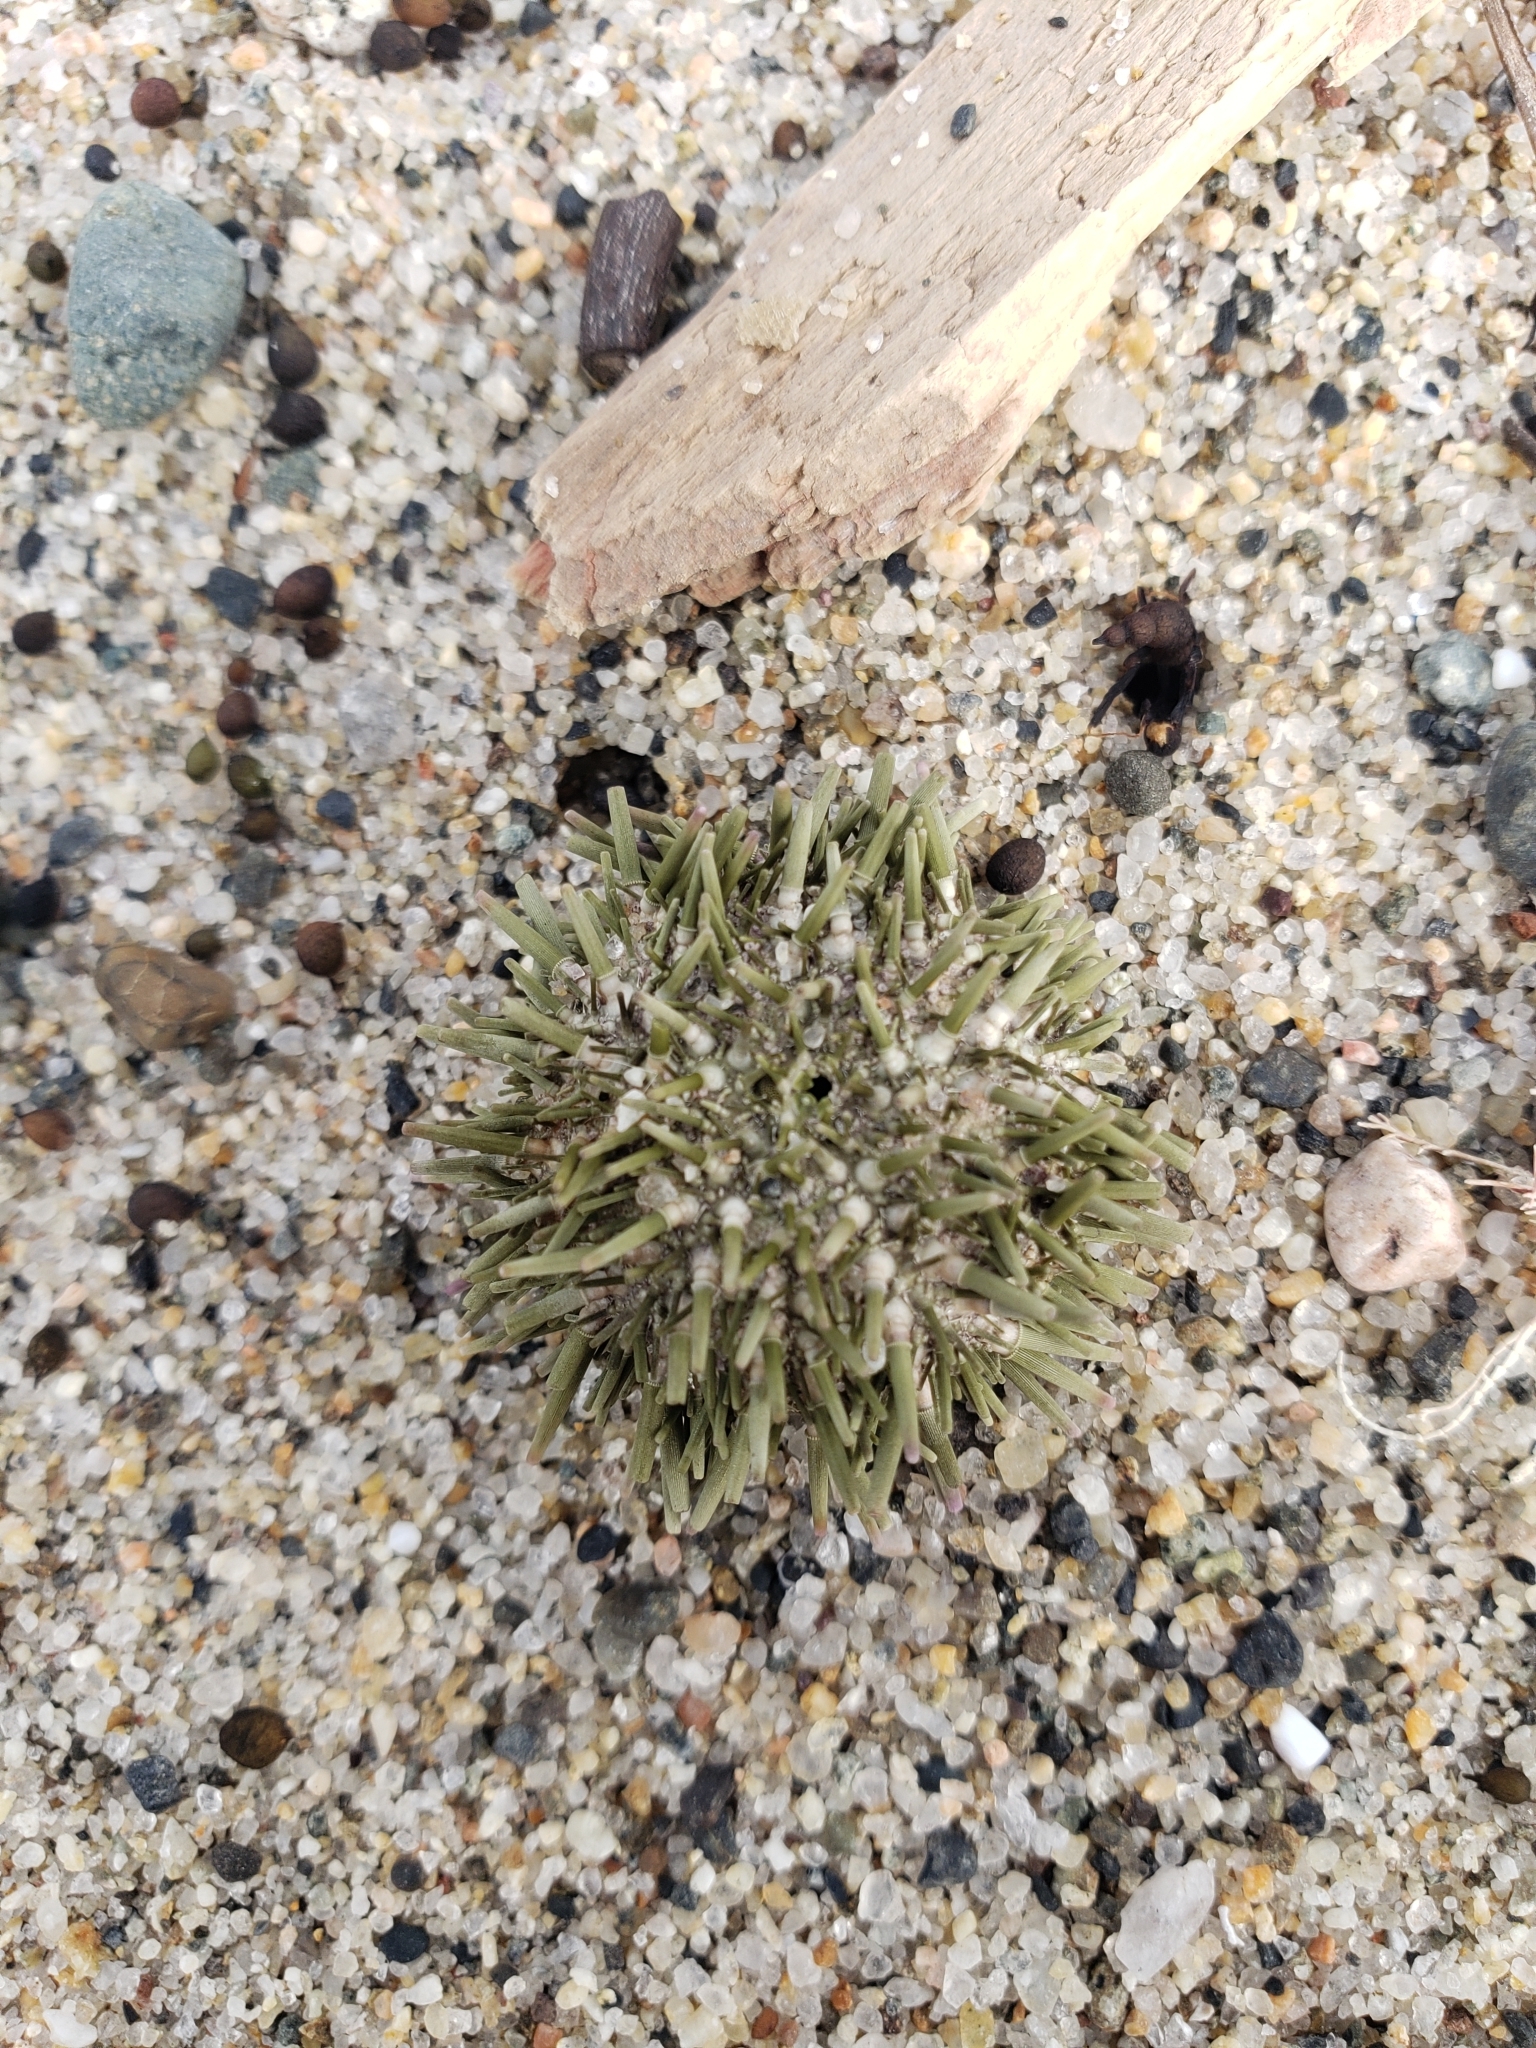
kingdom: Animalia
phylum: Echinodermata
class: Echinoidea
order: Camarodonta
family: Strongylocentrotidae
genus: Strongylocentrotus
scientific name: Strongylocentrotus purpuratus
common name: Purple sea urchin
